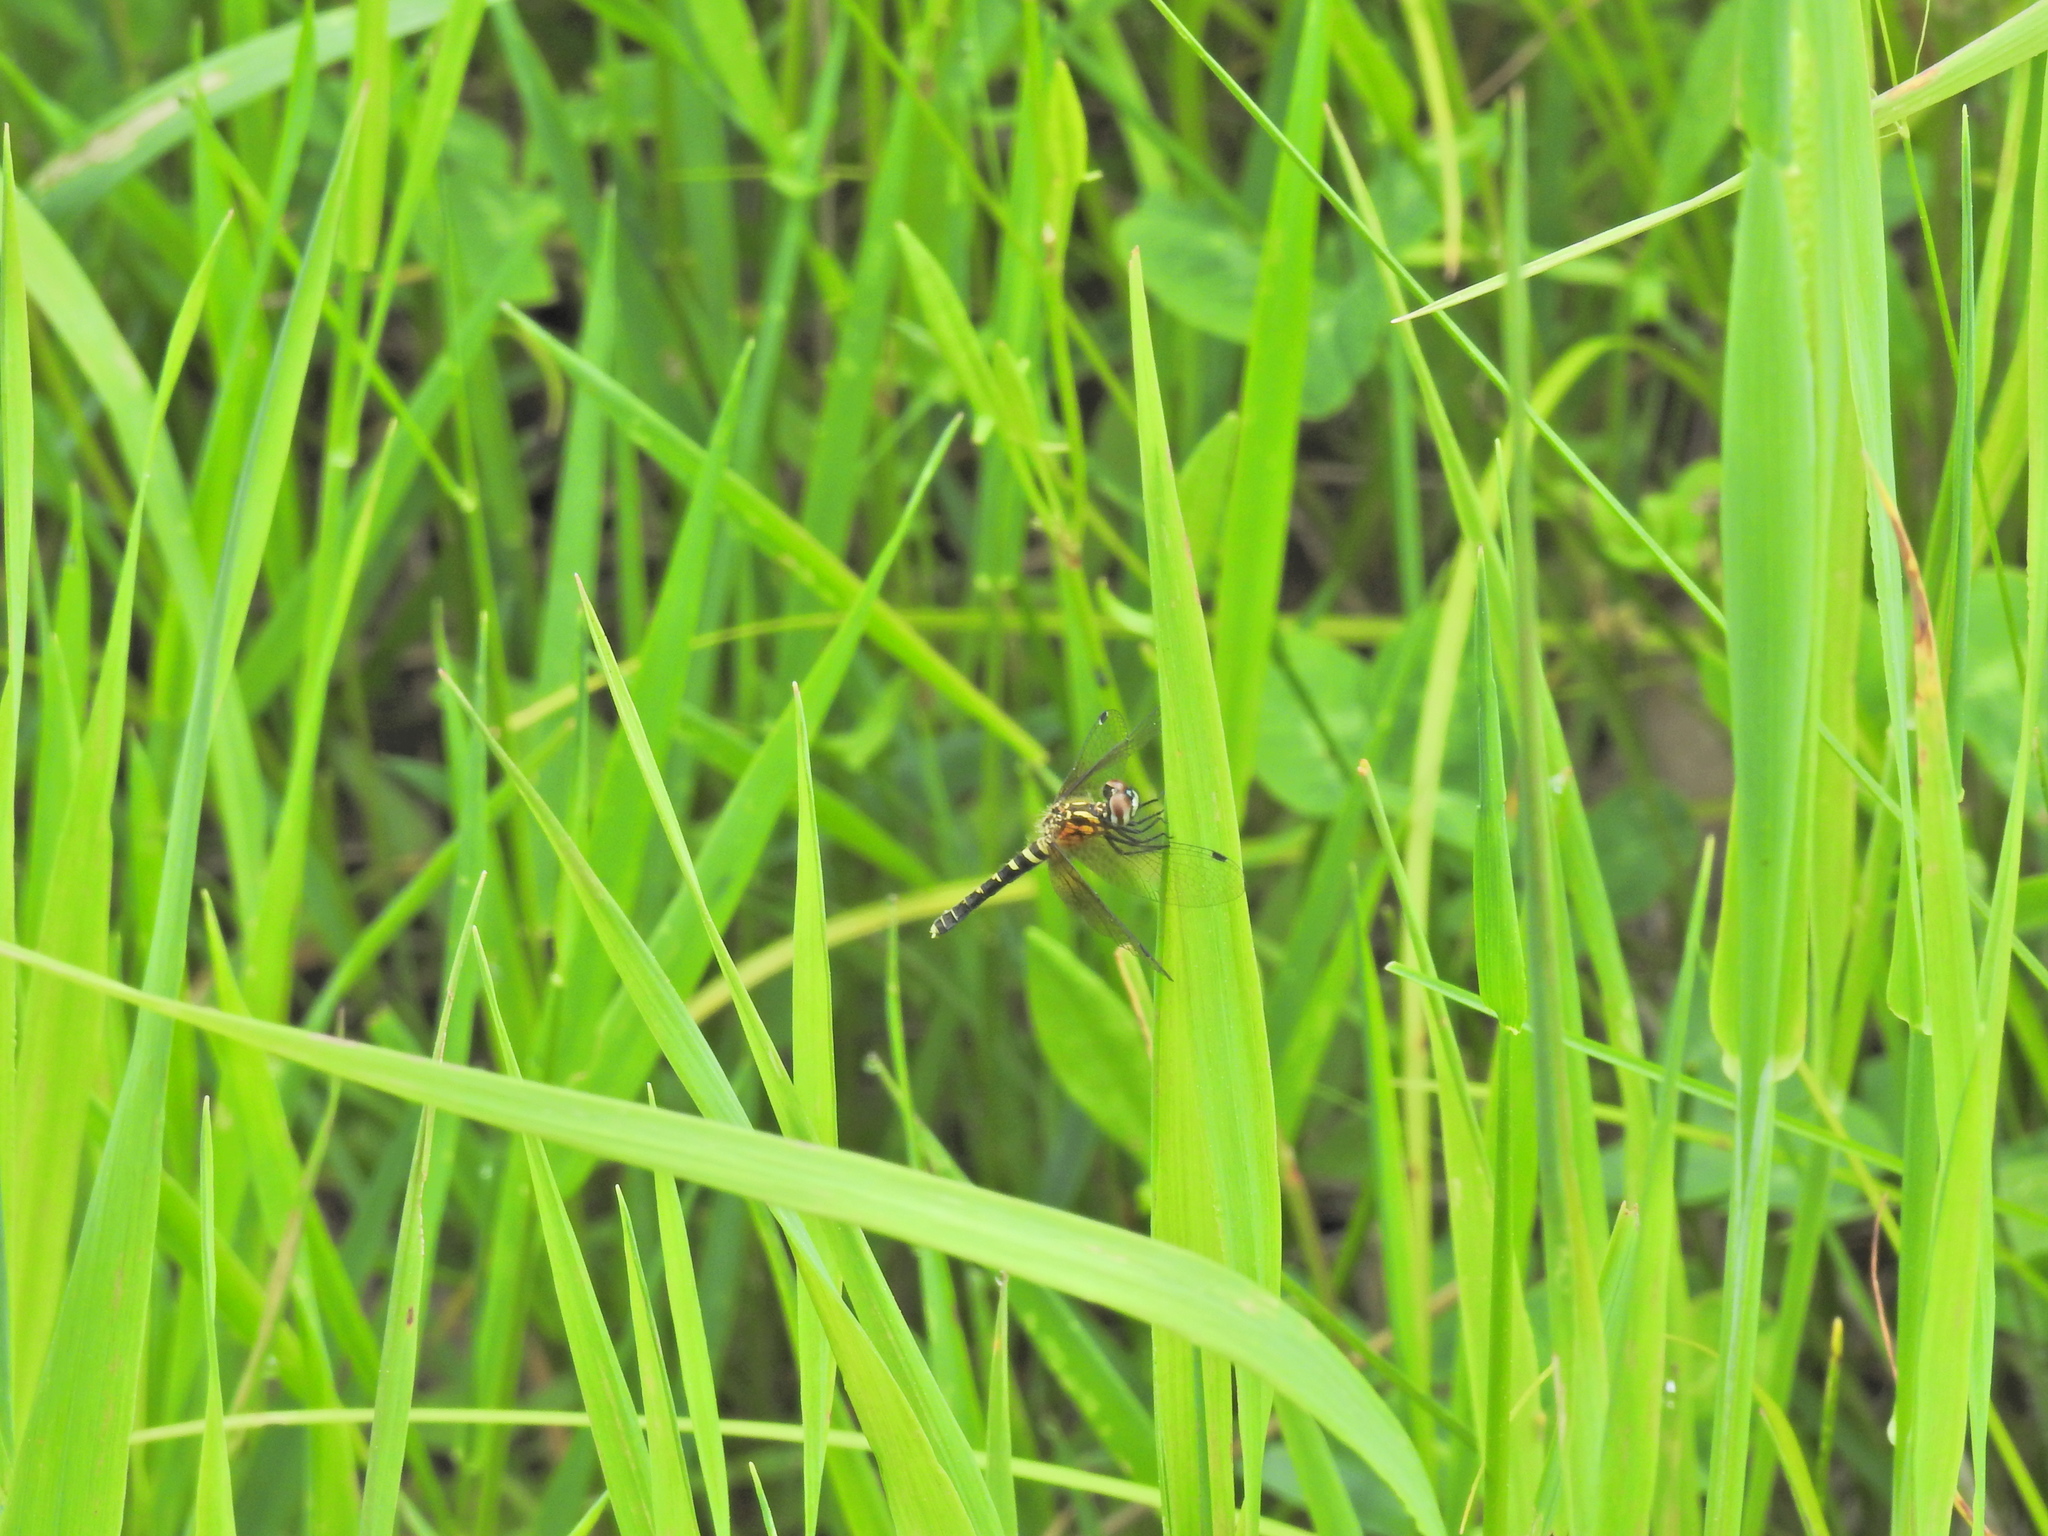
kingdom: Animalia
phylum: Arthropoda
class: Insecta
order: Odonata
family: Libellulidae
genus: Nannothemis
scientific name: Nannothemis bella
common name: Elfin skimmer
